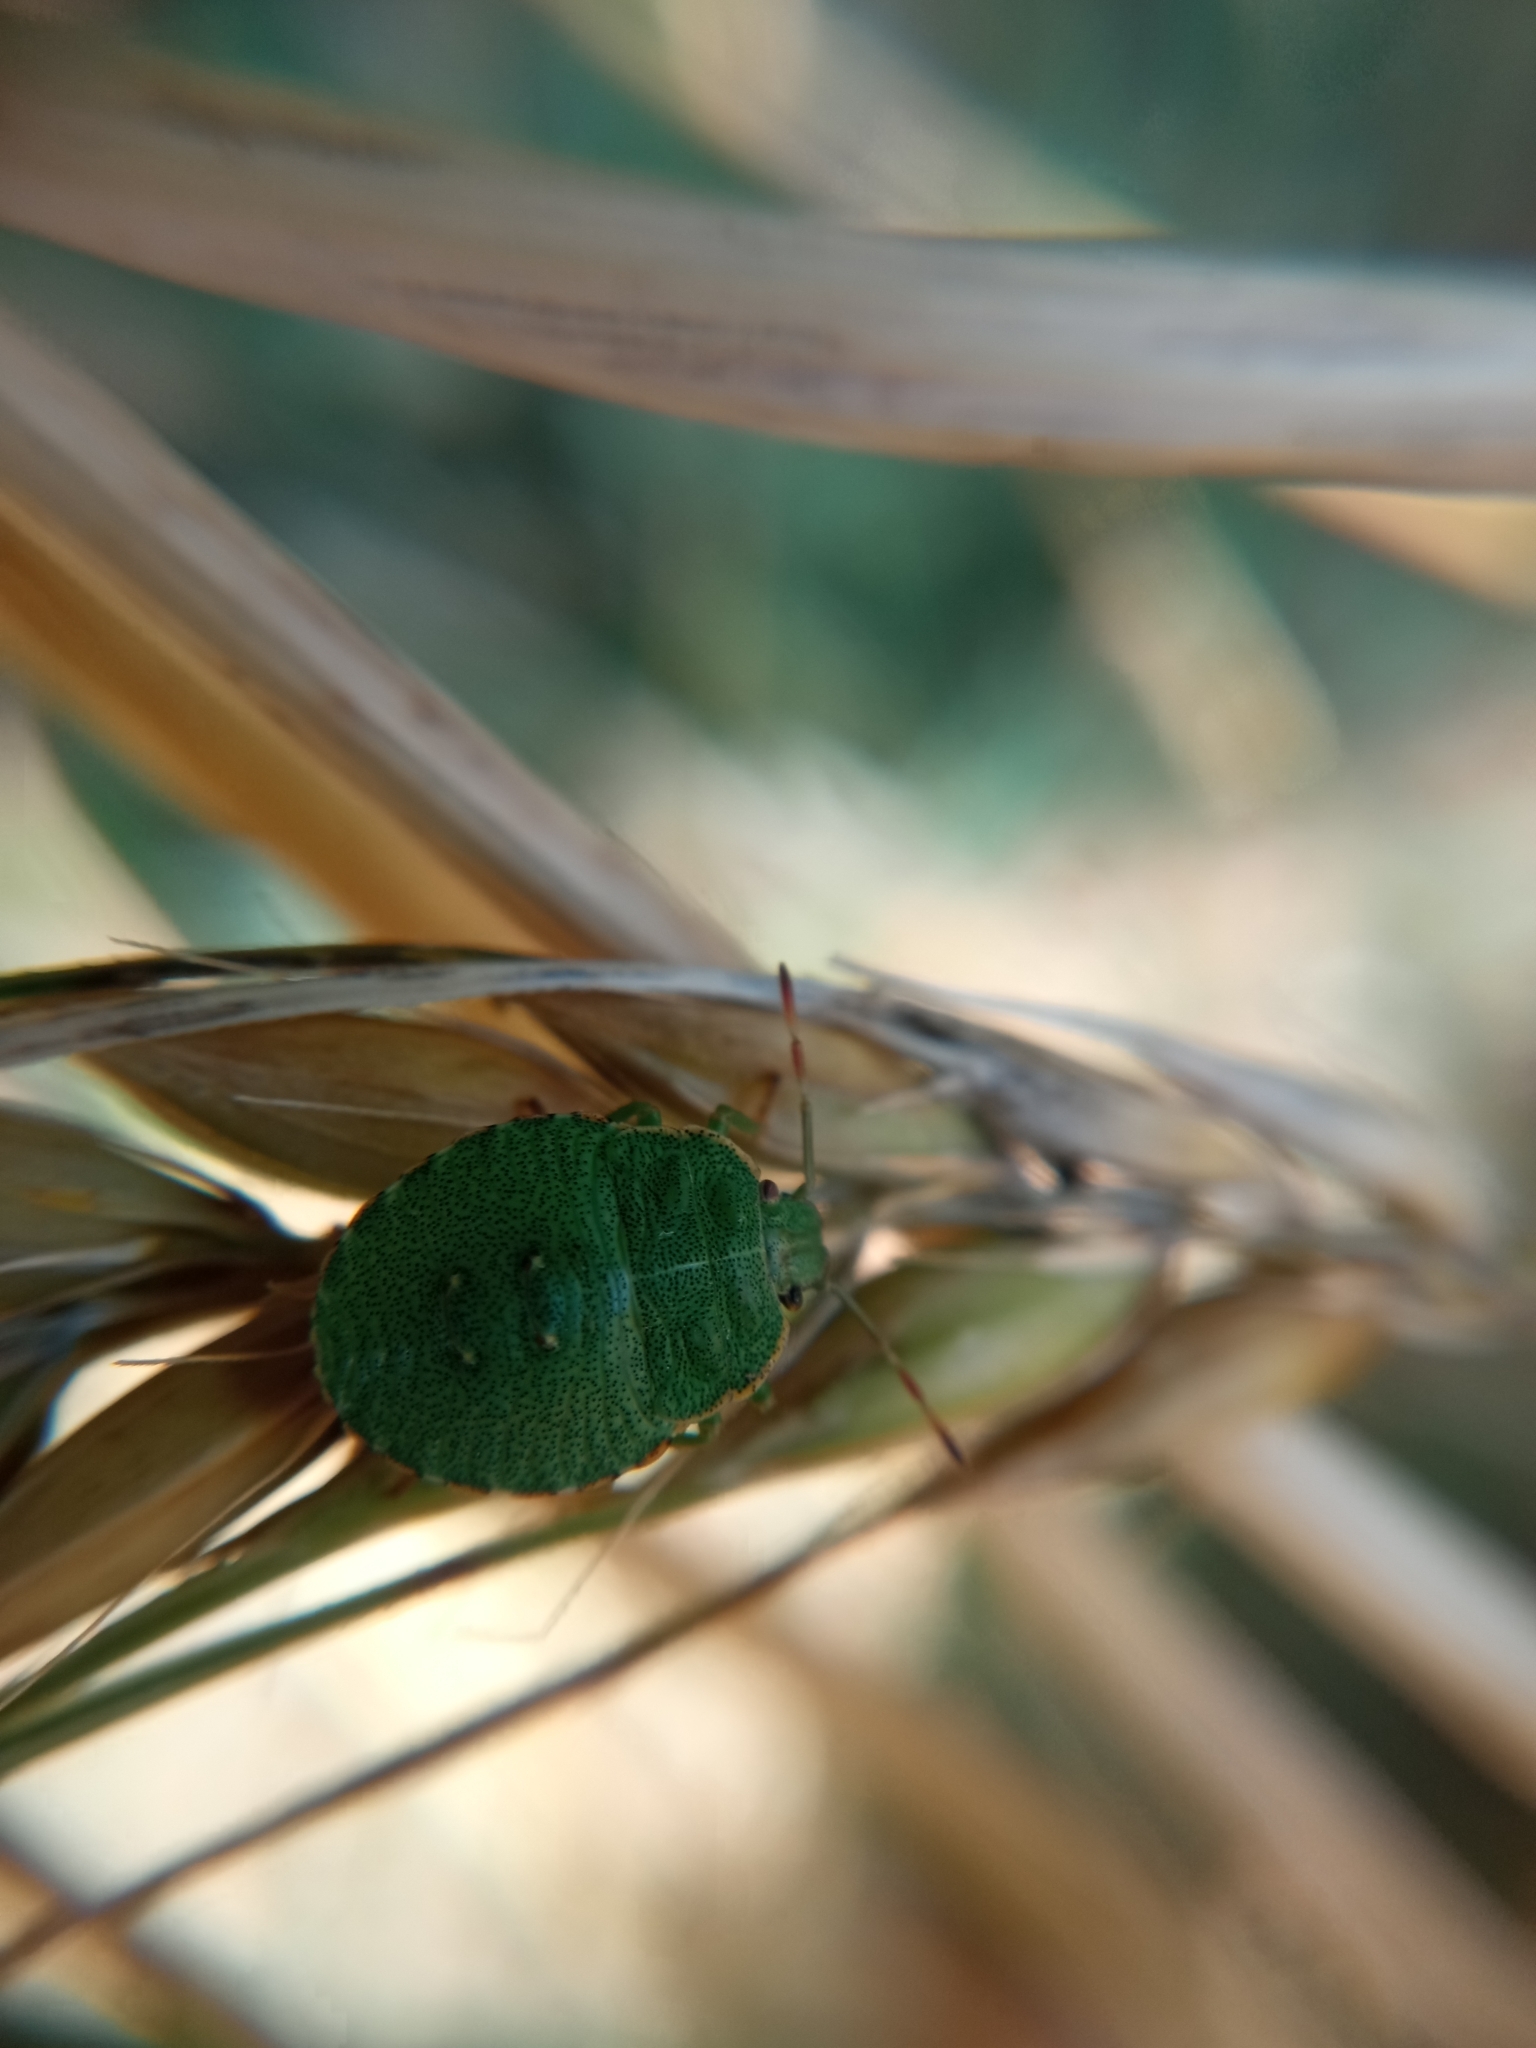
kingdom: Animalia
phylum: Arthropoda
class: Insecta
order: Hemiptera
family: Pentatomidae
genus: Palomena
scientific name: Palomena prasina
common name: Green shieldbug
